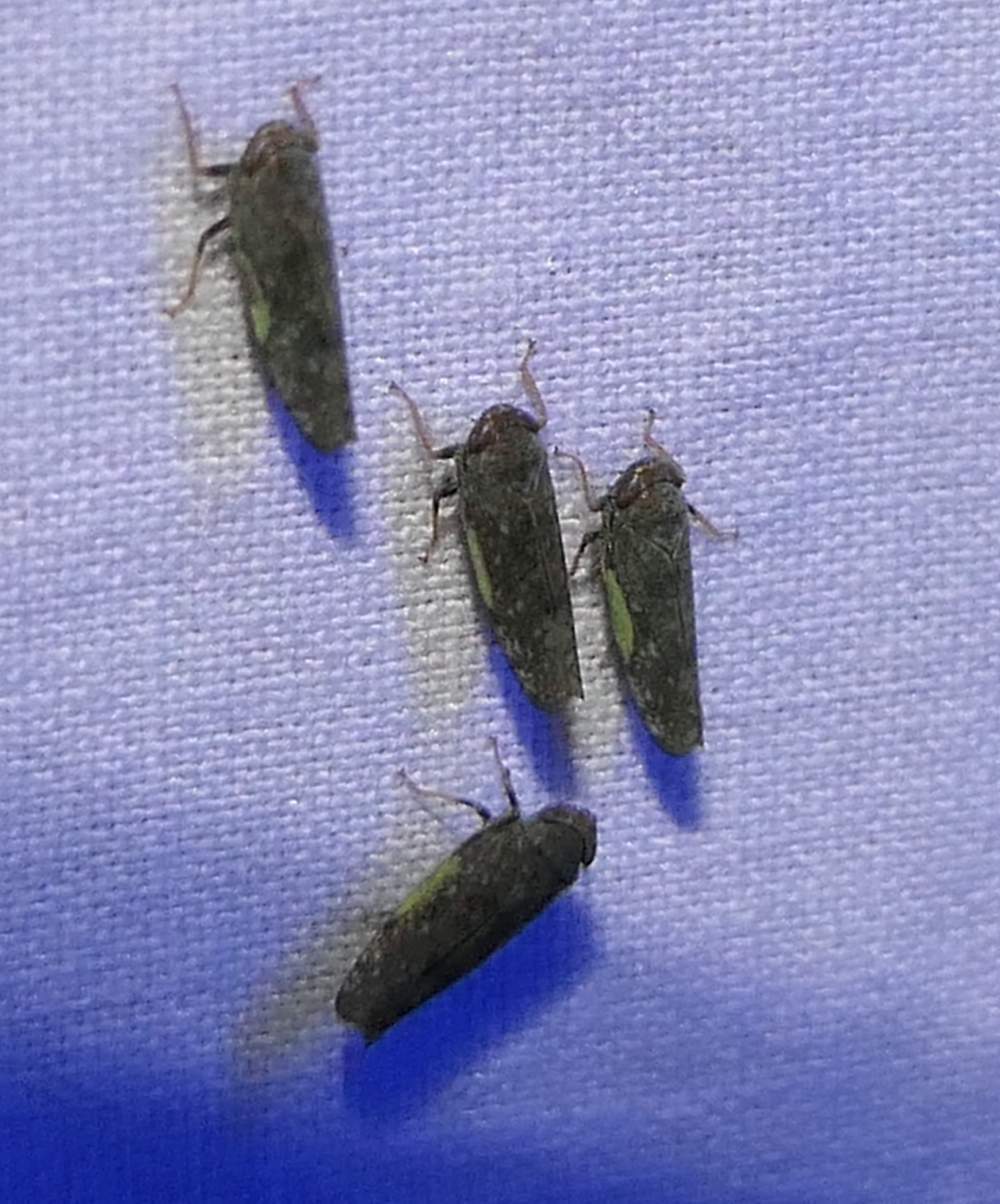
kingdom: Animalia
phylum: Arthropoda
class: Insecta
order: Hemiptera
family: Cicadellidae
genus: Orientus
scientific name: Orientus ishidae
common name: Japanese leafhopper
